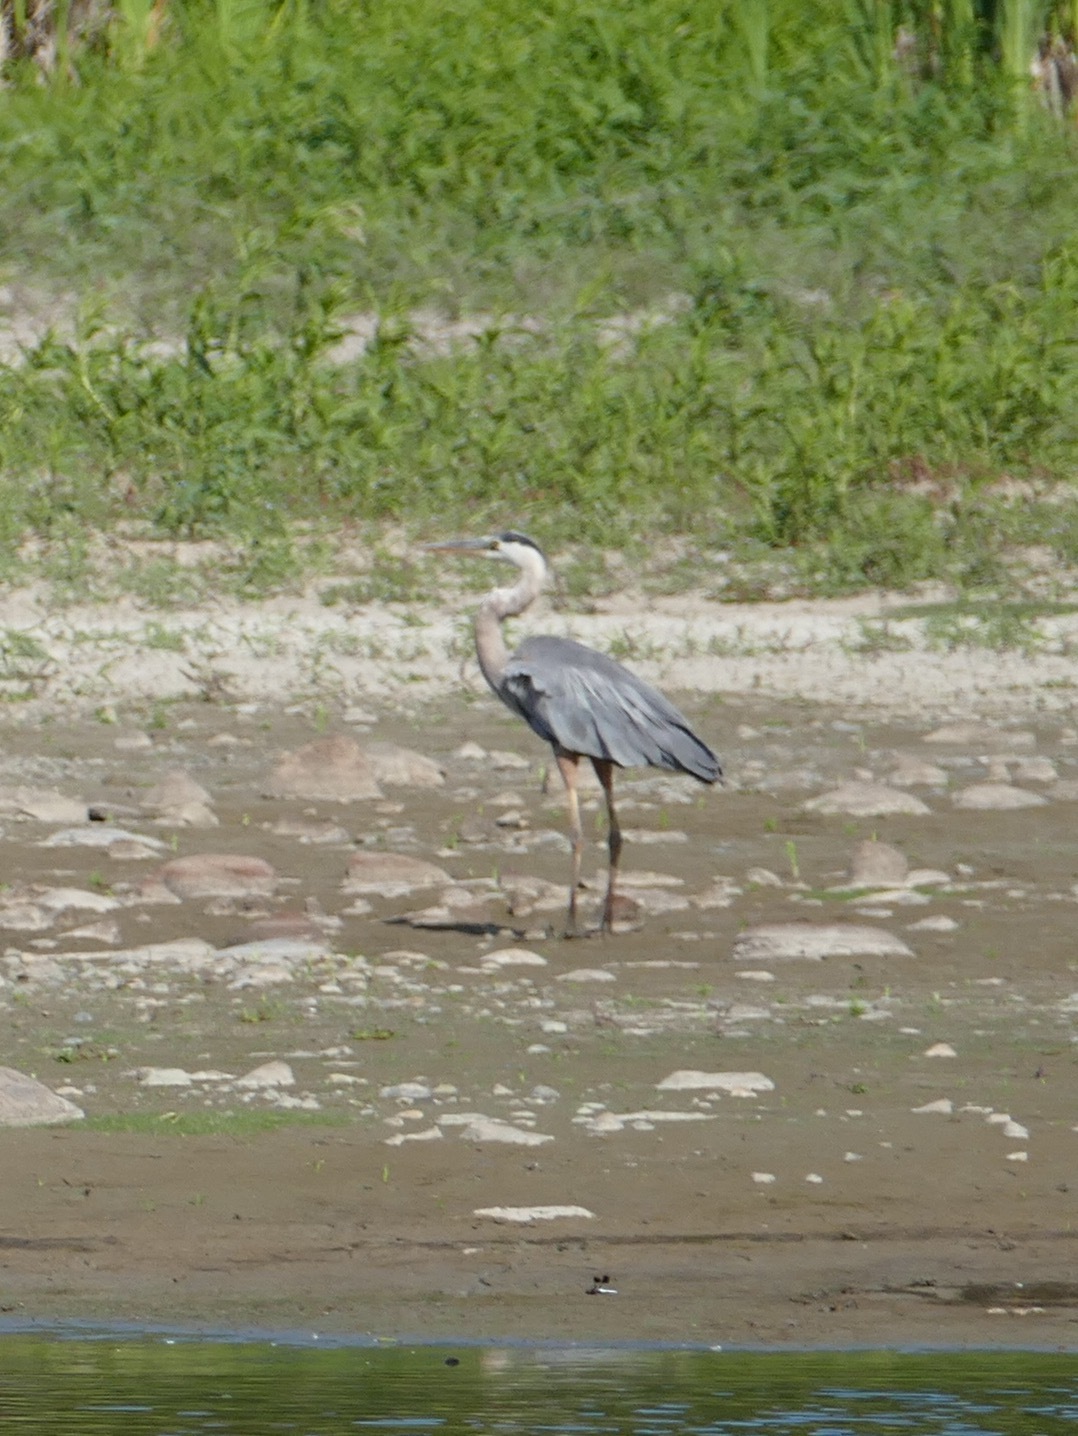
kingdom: Animalia
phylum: Chordata
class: Aves
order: Pelecaniformes
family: Ardeidae
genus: Ardea
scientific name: Ardea herodias
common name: Great blue heron
